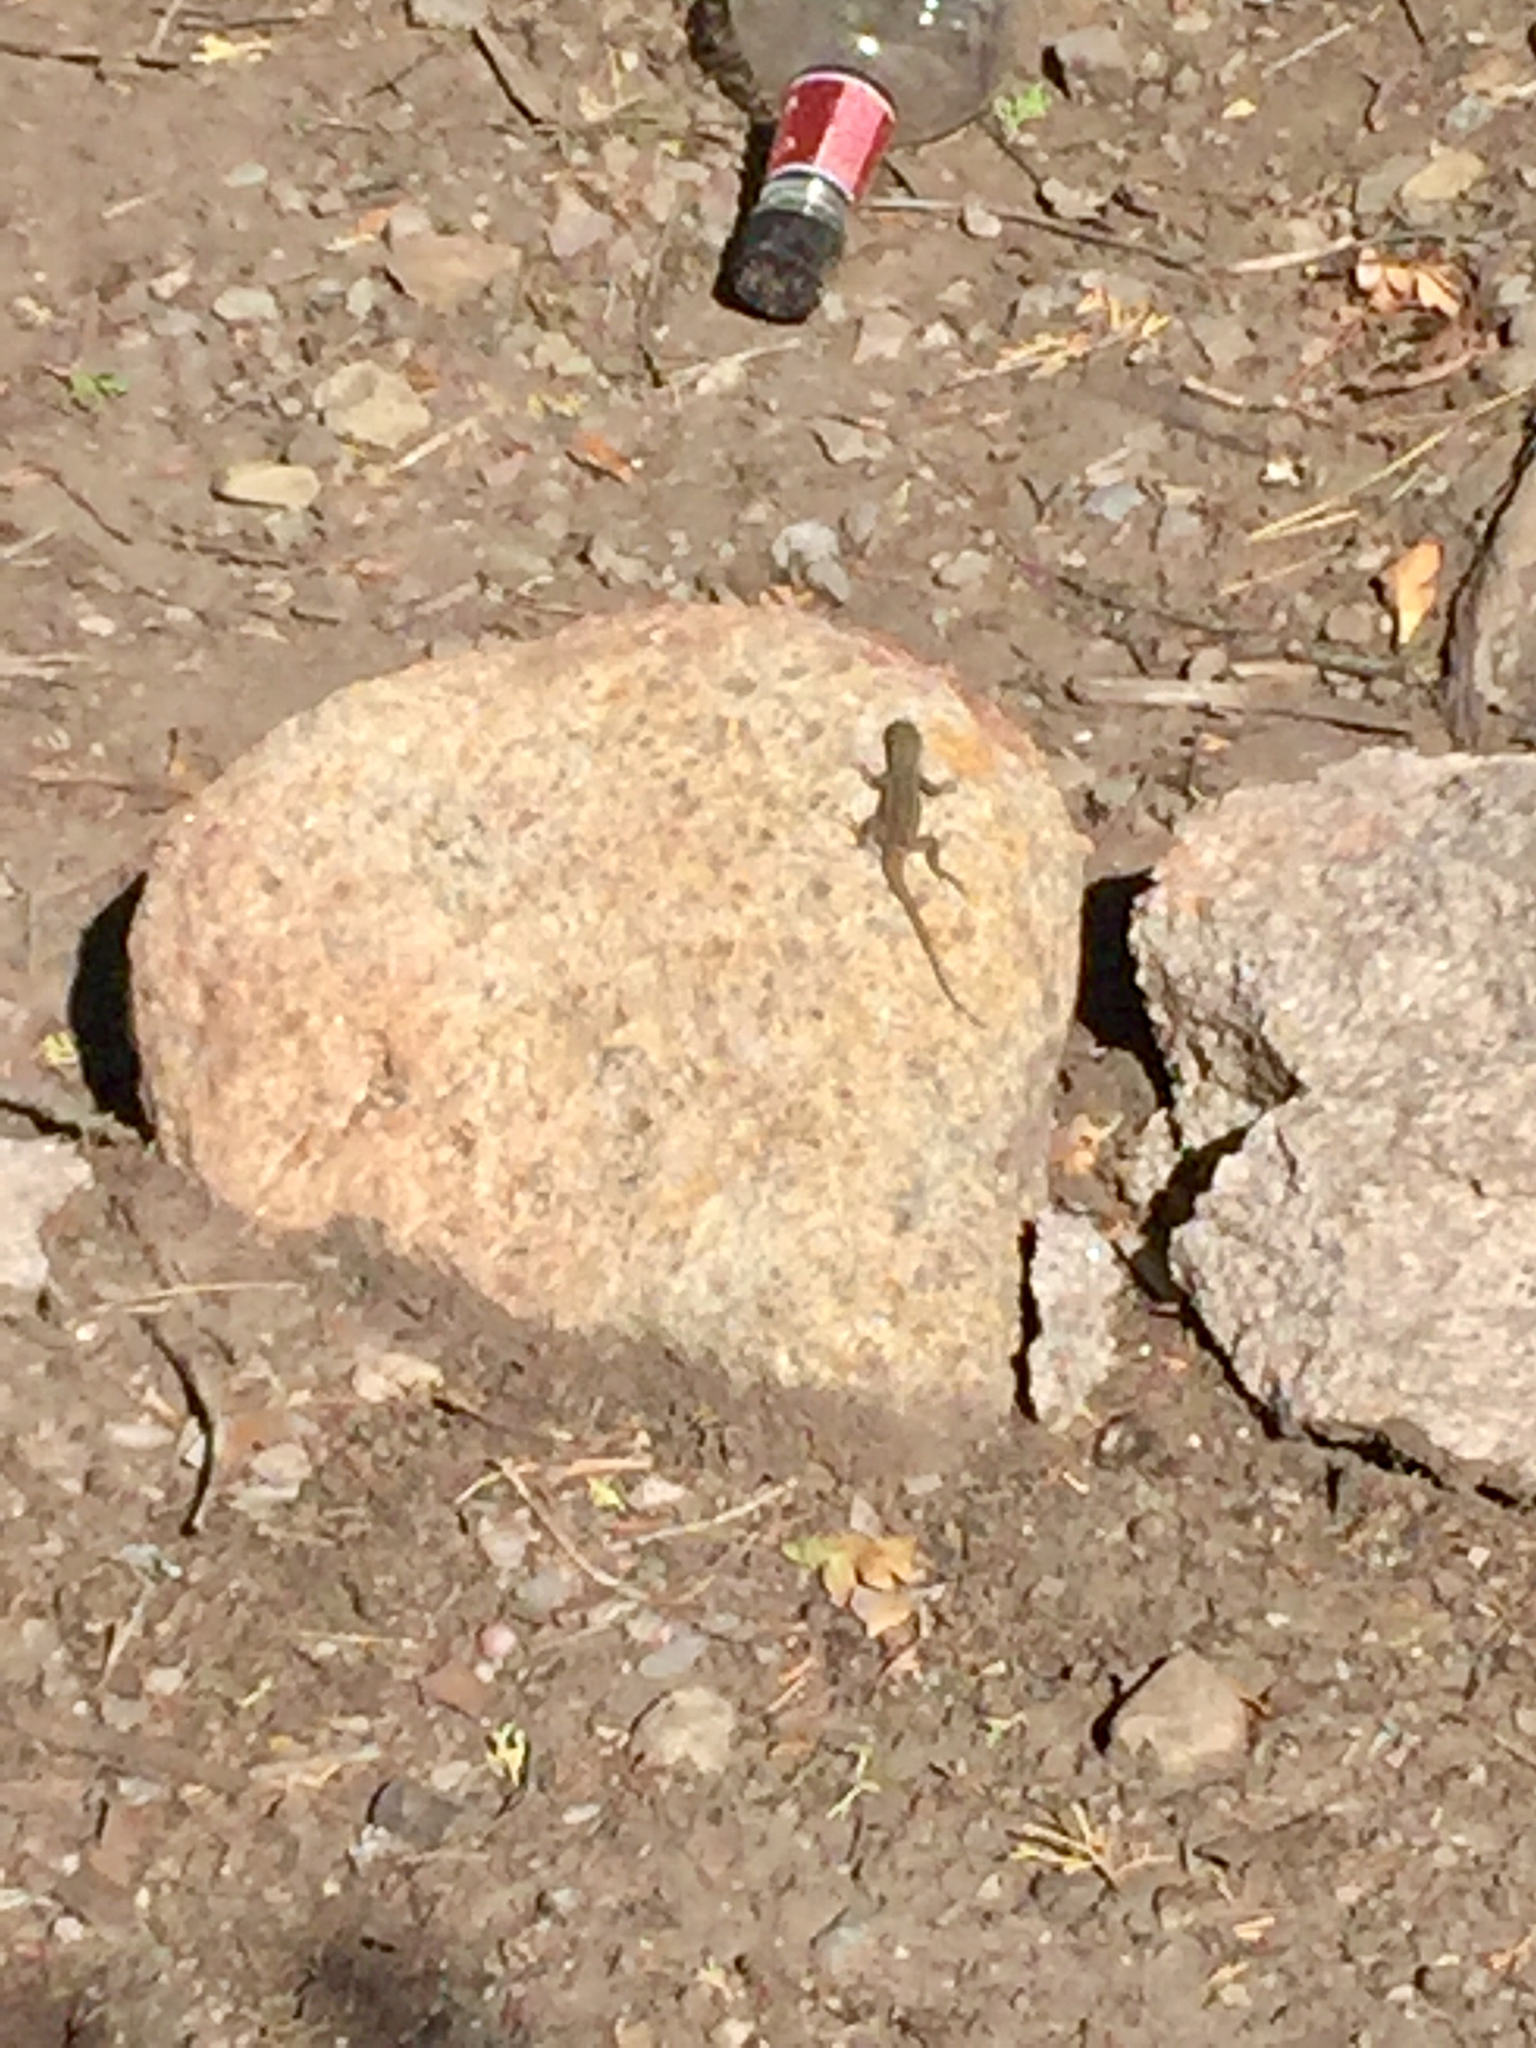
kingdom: Animalia
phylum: Chordata
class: Squamata
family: Phrynosomatidae
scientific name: Phrynosomatidae
